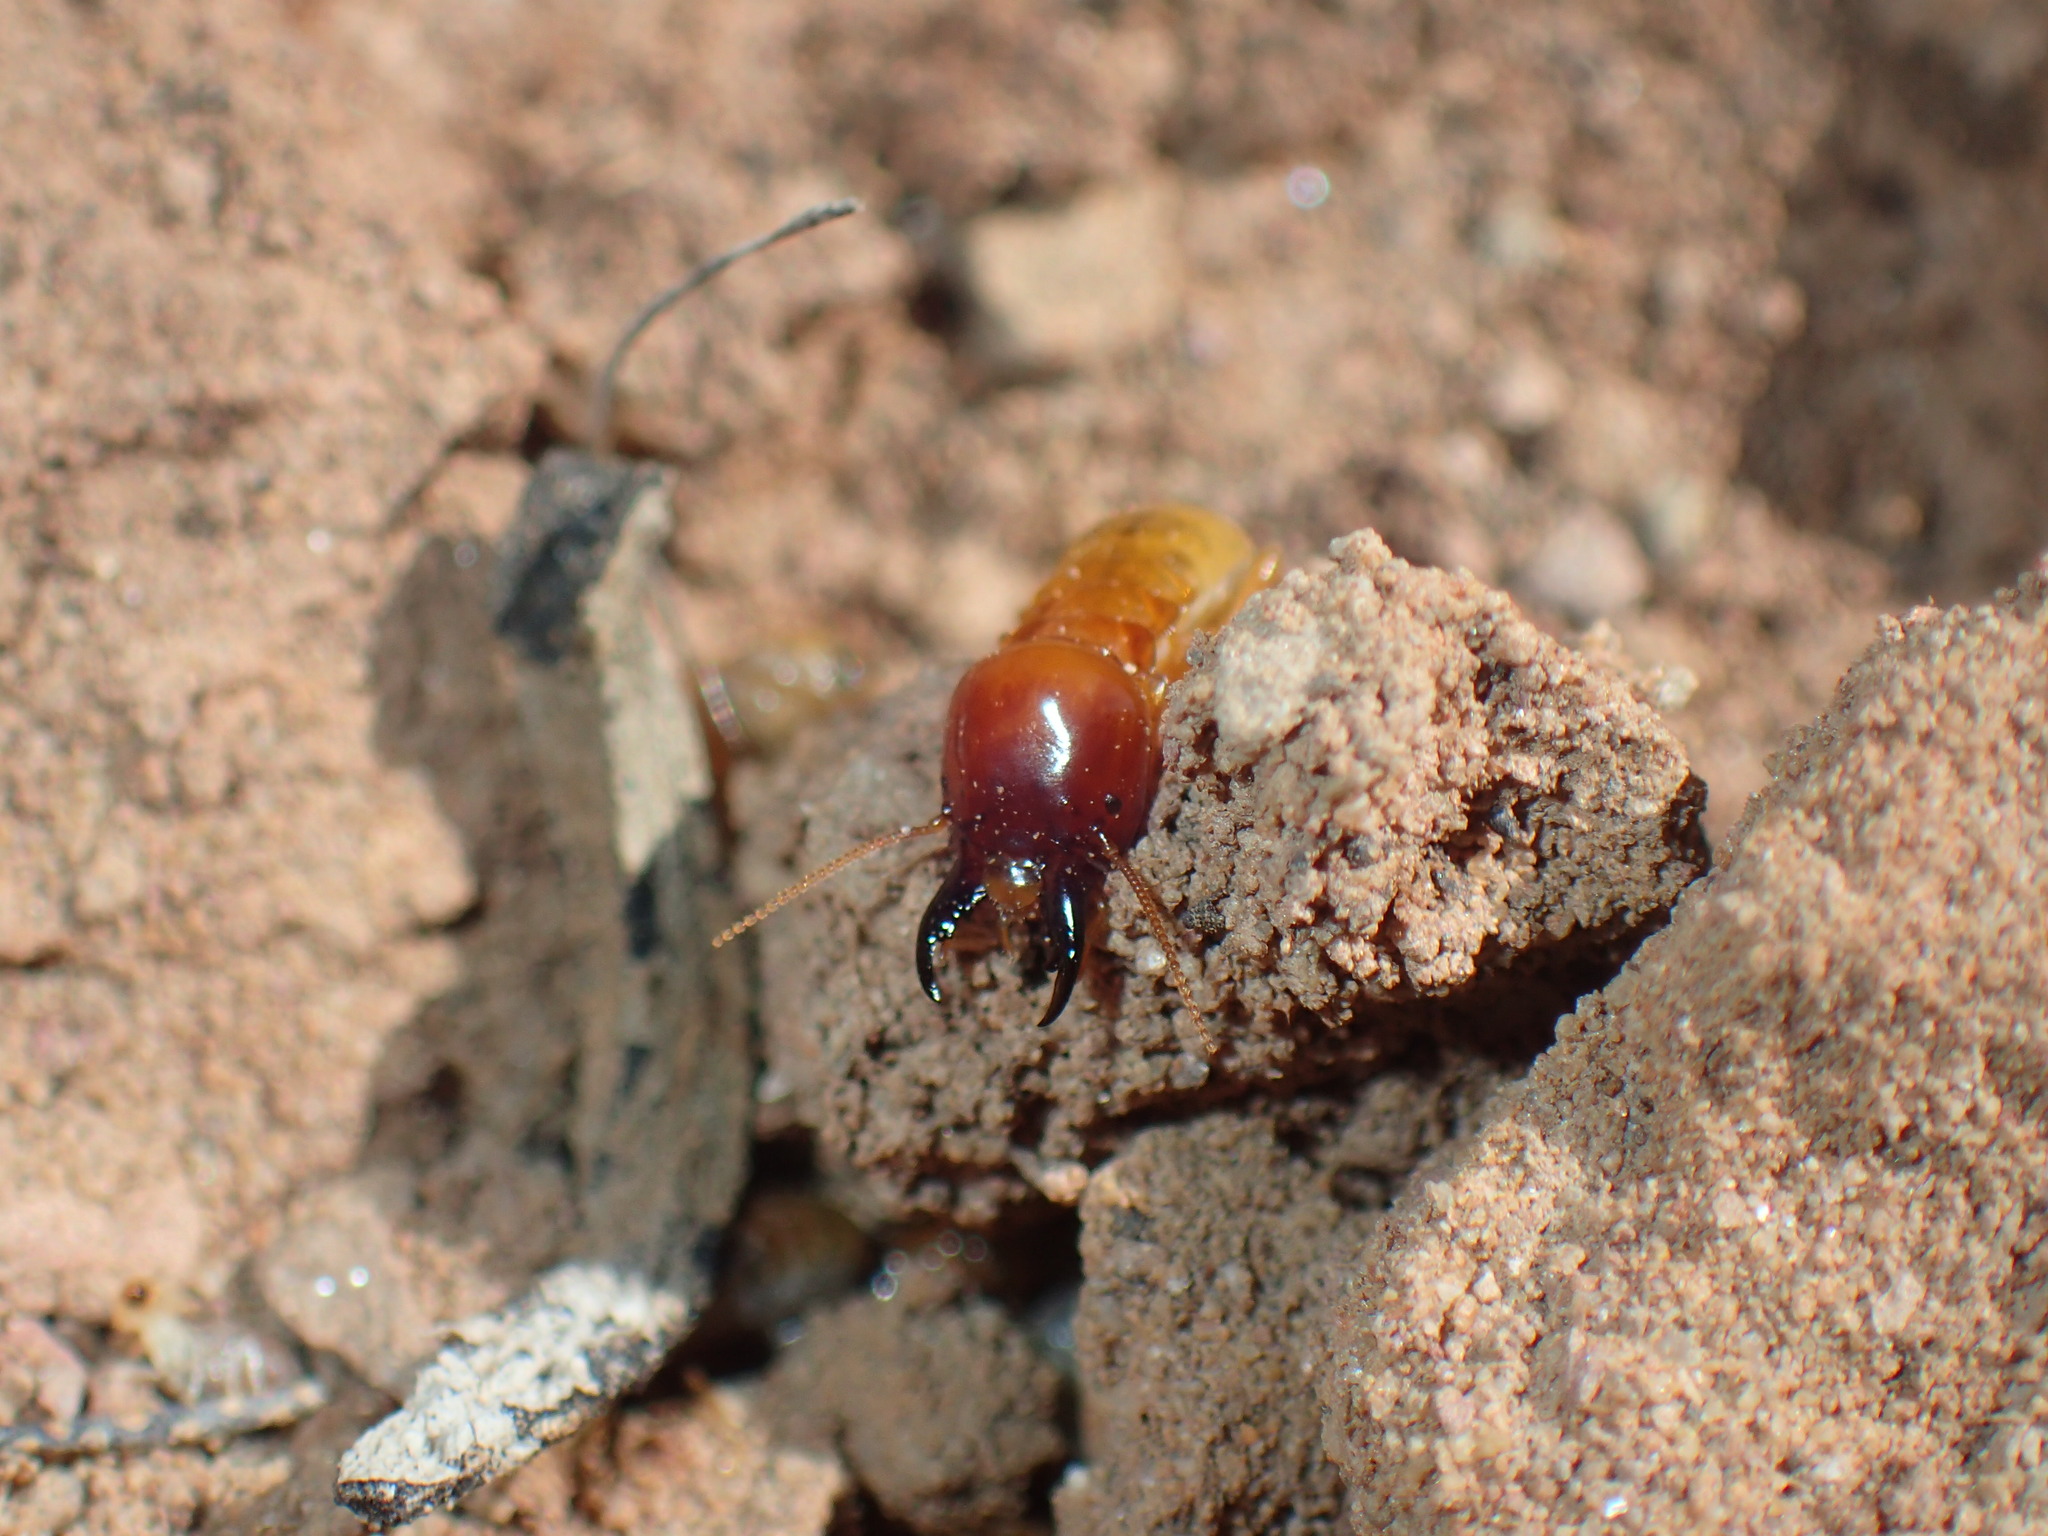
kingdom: Animalia
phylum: Arthropoda
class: Insecta
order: Blattodea
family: Hodotermitidae
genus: Microhodotermes
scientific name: Microhodotermes viator
